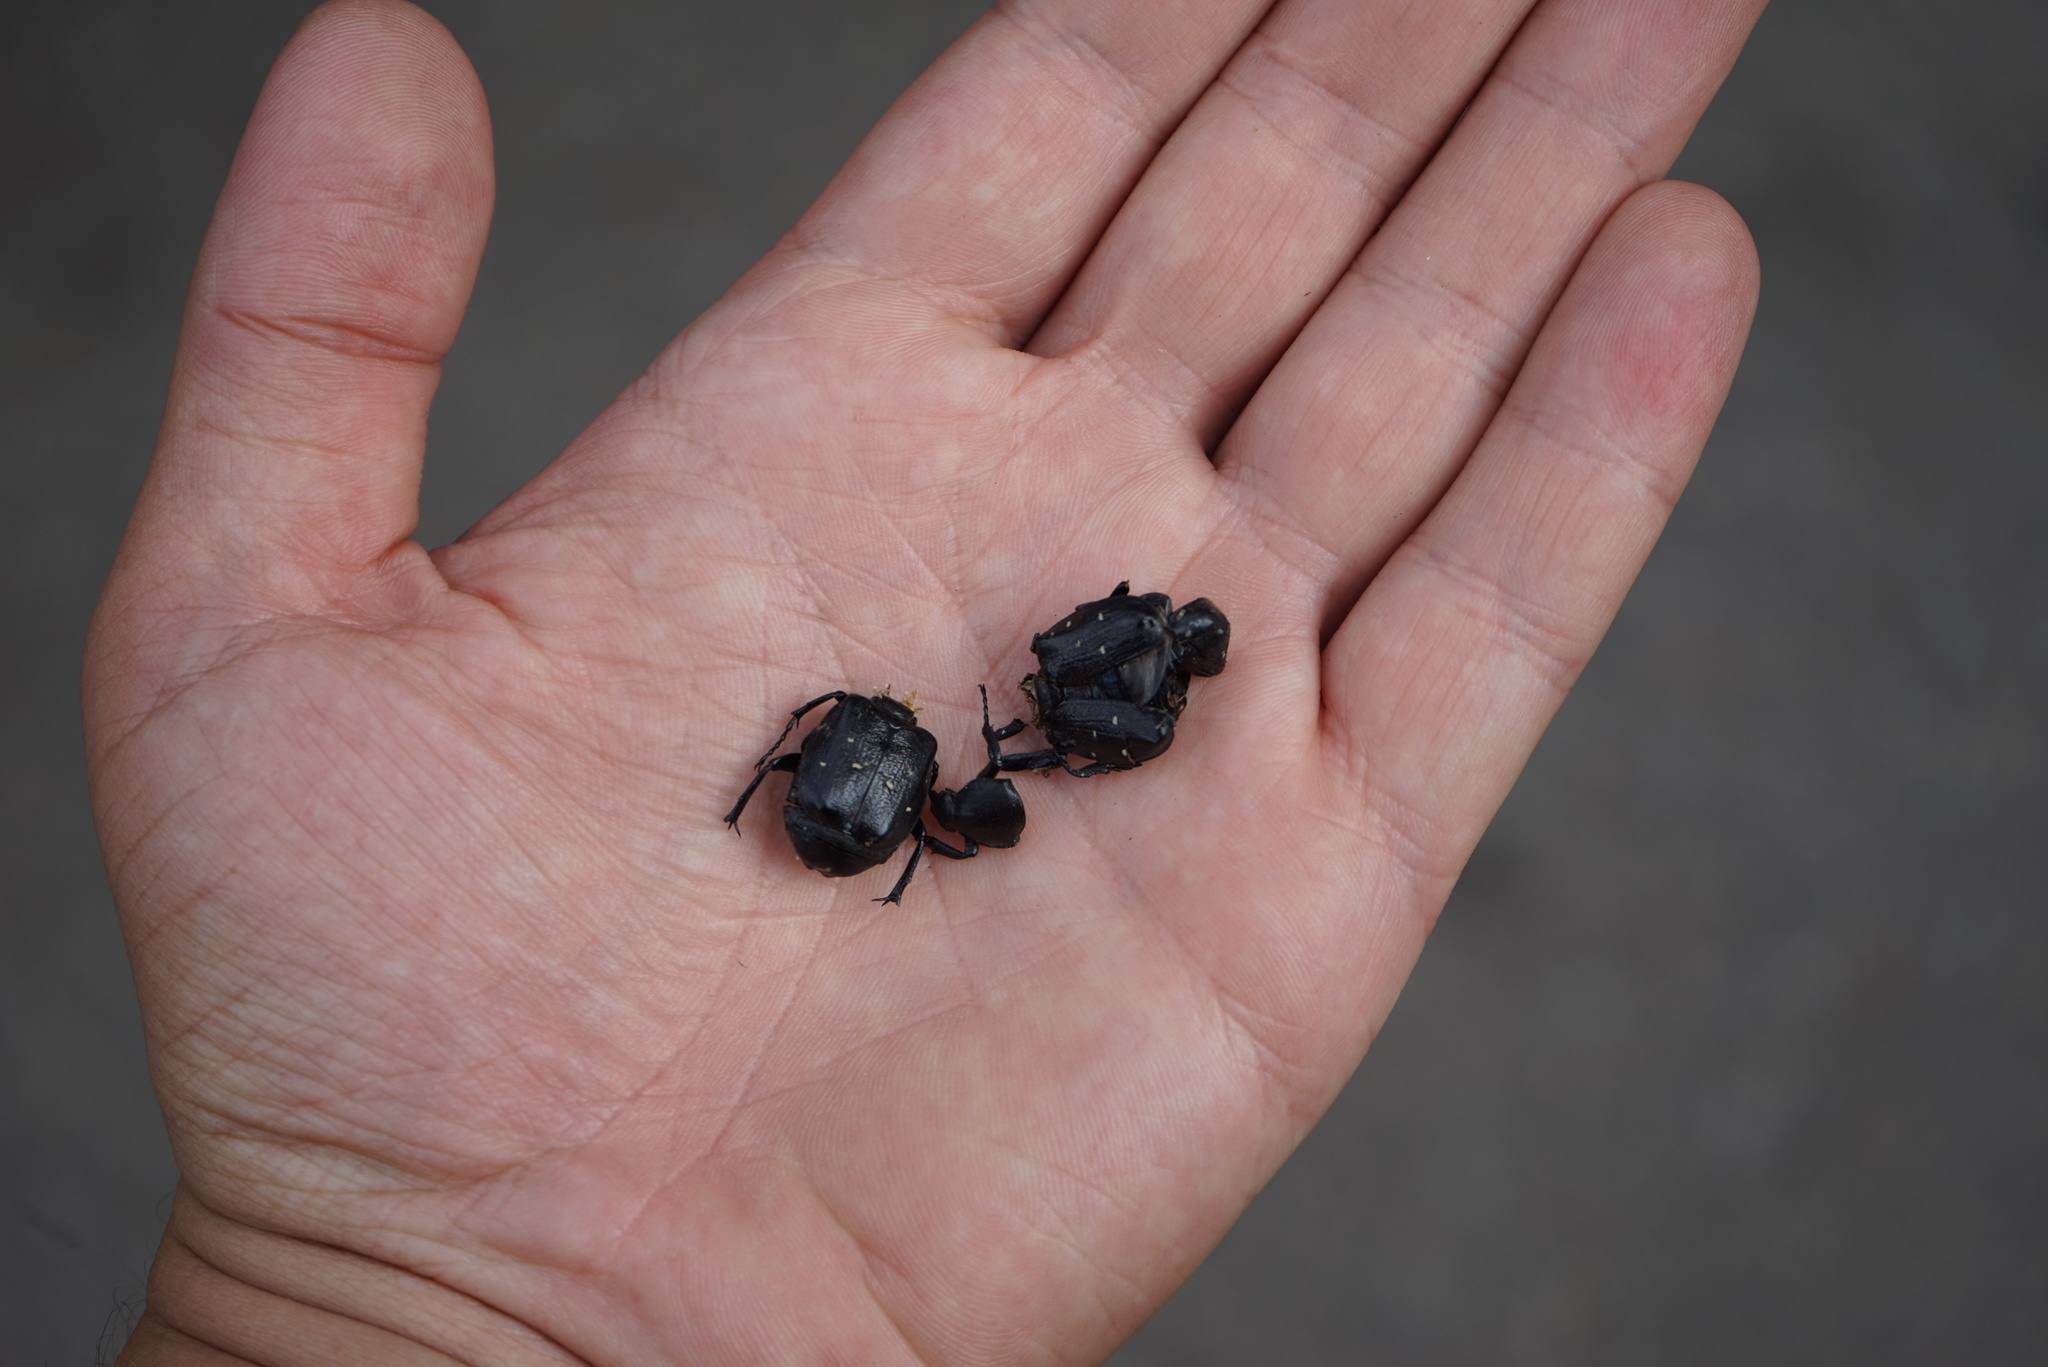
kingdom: Animalia
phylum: Arthropoda
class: Insecta
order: Coleoptera
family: Scarabaeidae
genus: Gnorimus
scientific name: Gnorimus variabilis
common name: Variable chafer
